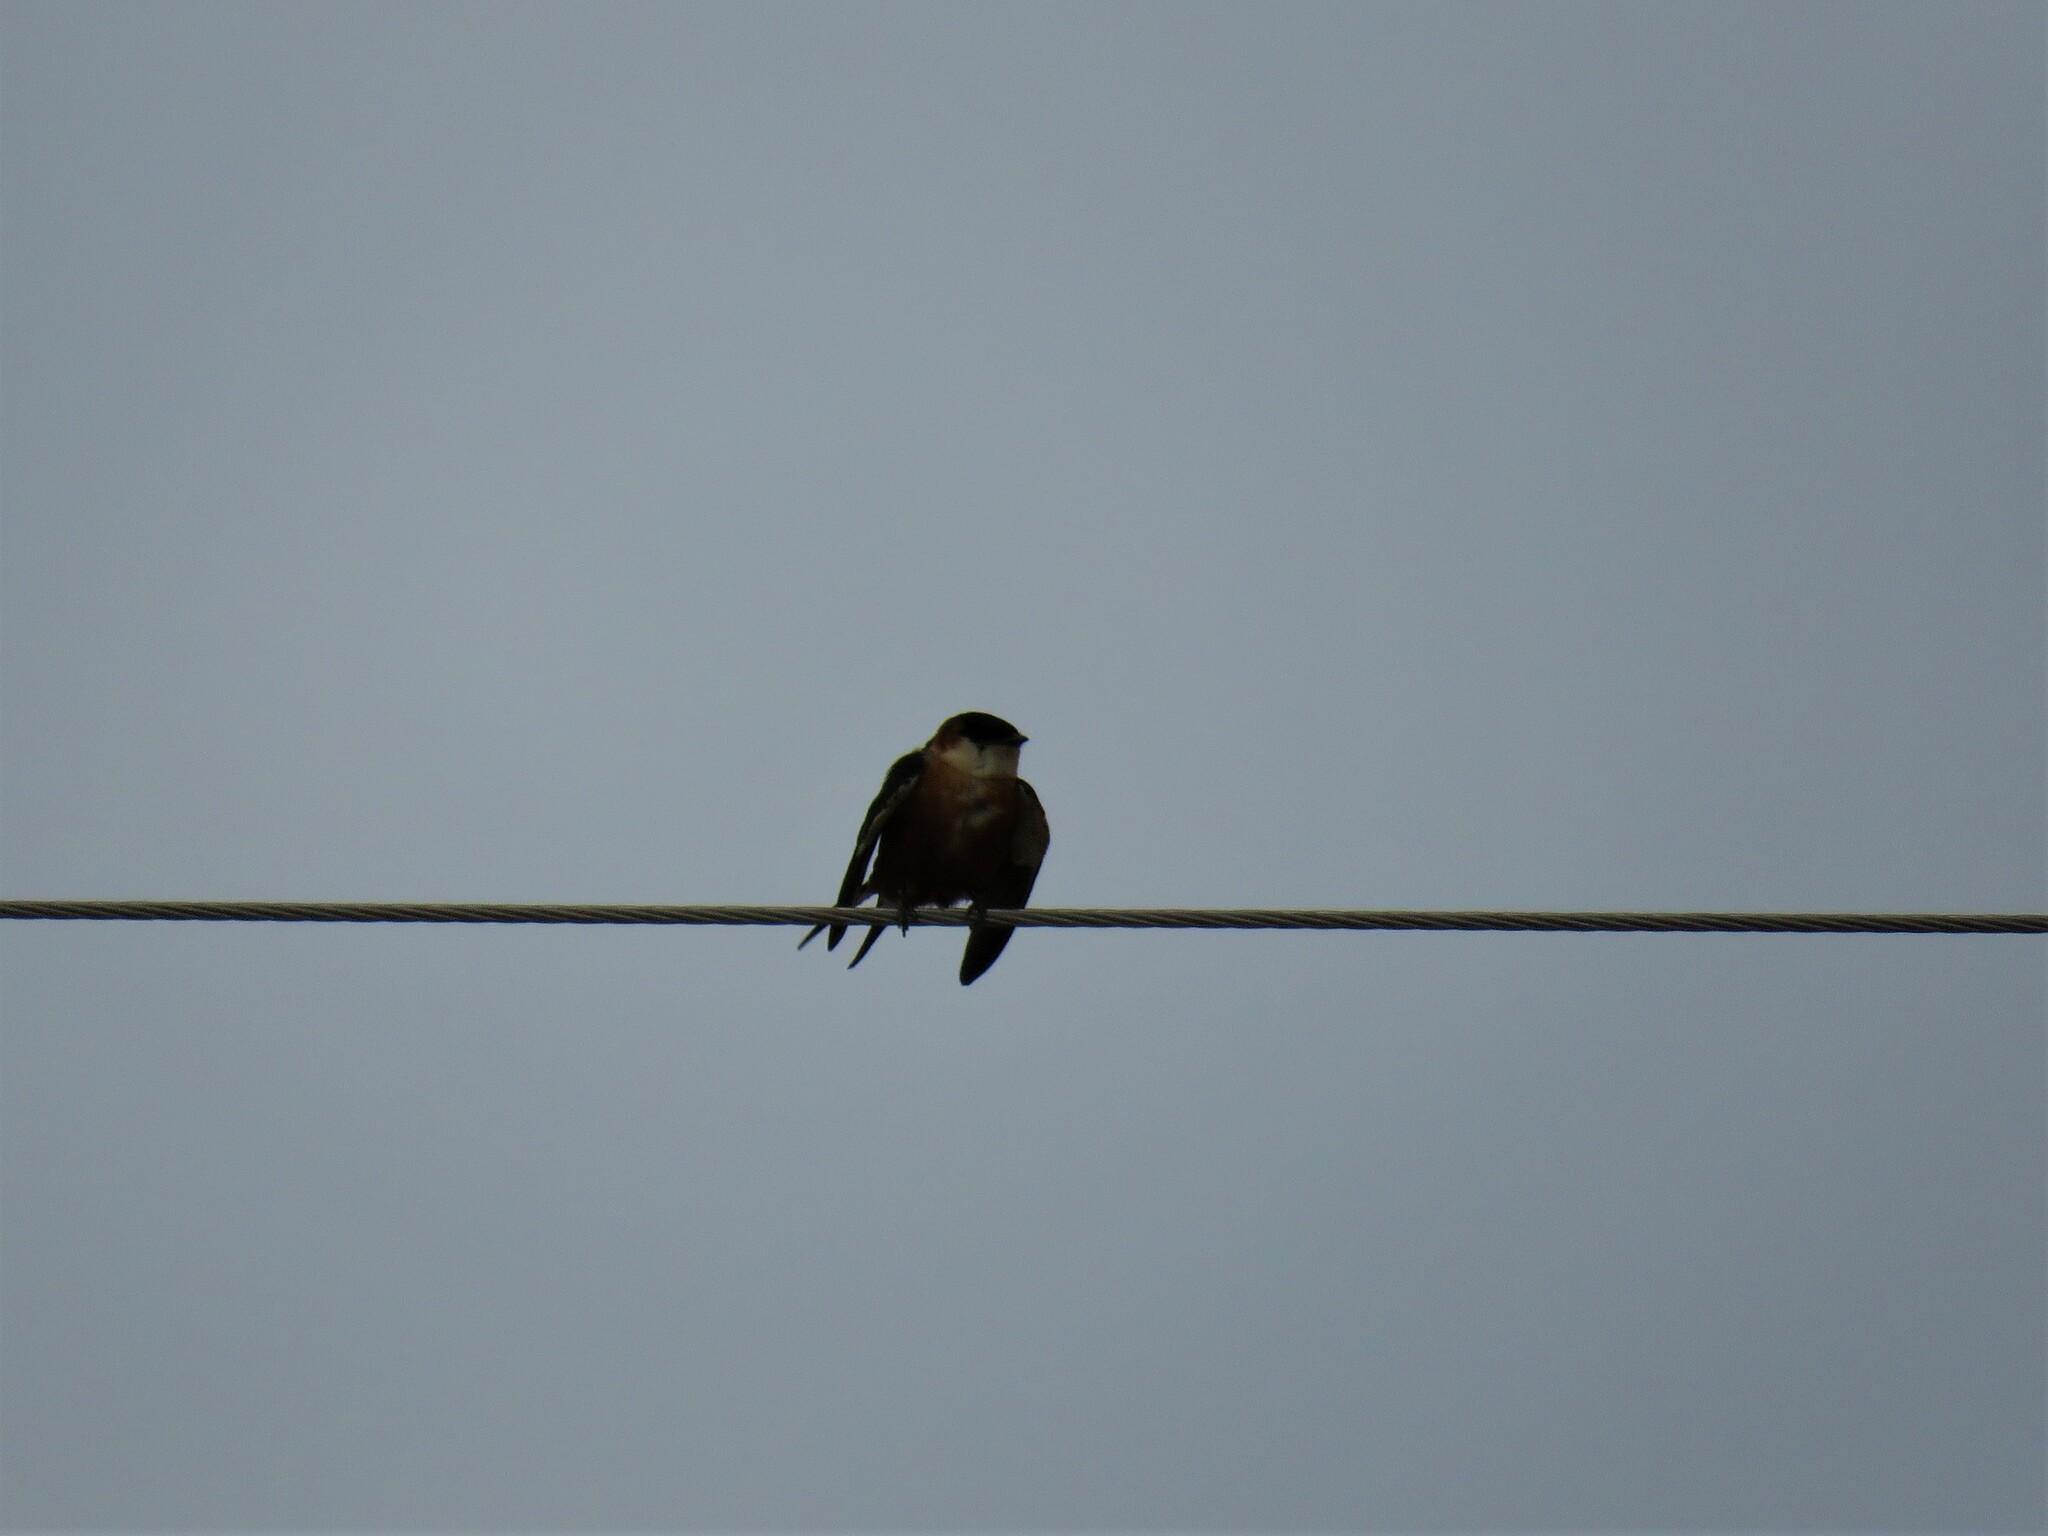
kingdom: Animalia
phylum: Chordata
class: Aves
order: Passeriformes
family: Hirundinidae
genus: Cecropis
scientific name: Cecropis senegalensis
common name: Mosque swallow
